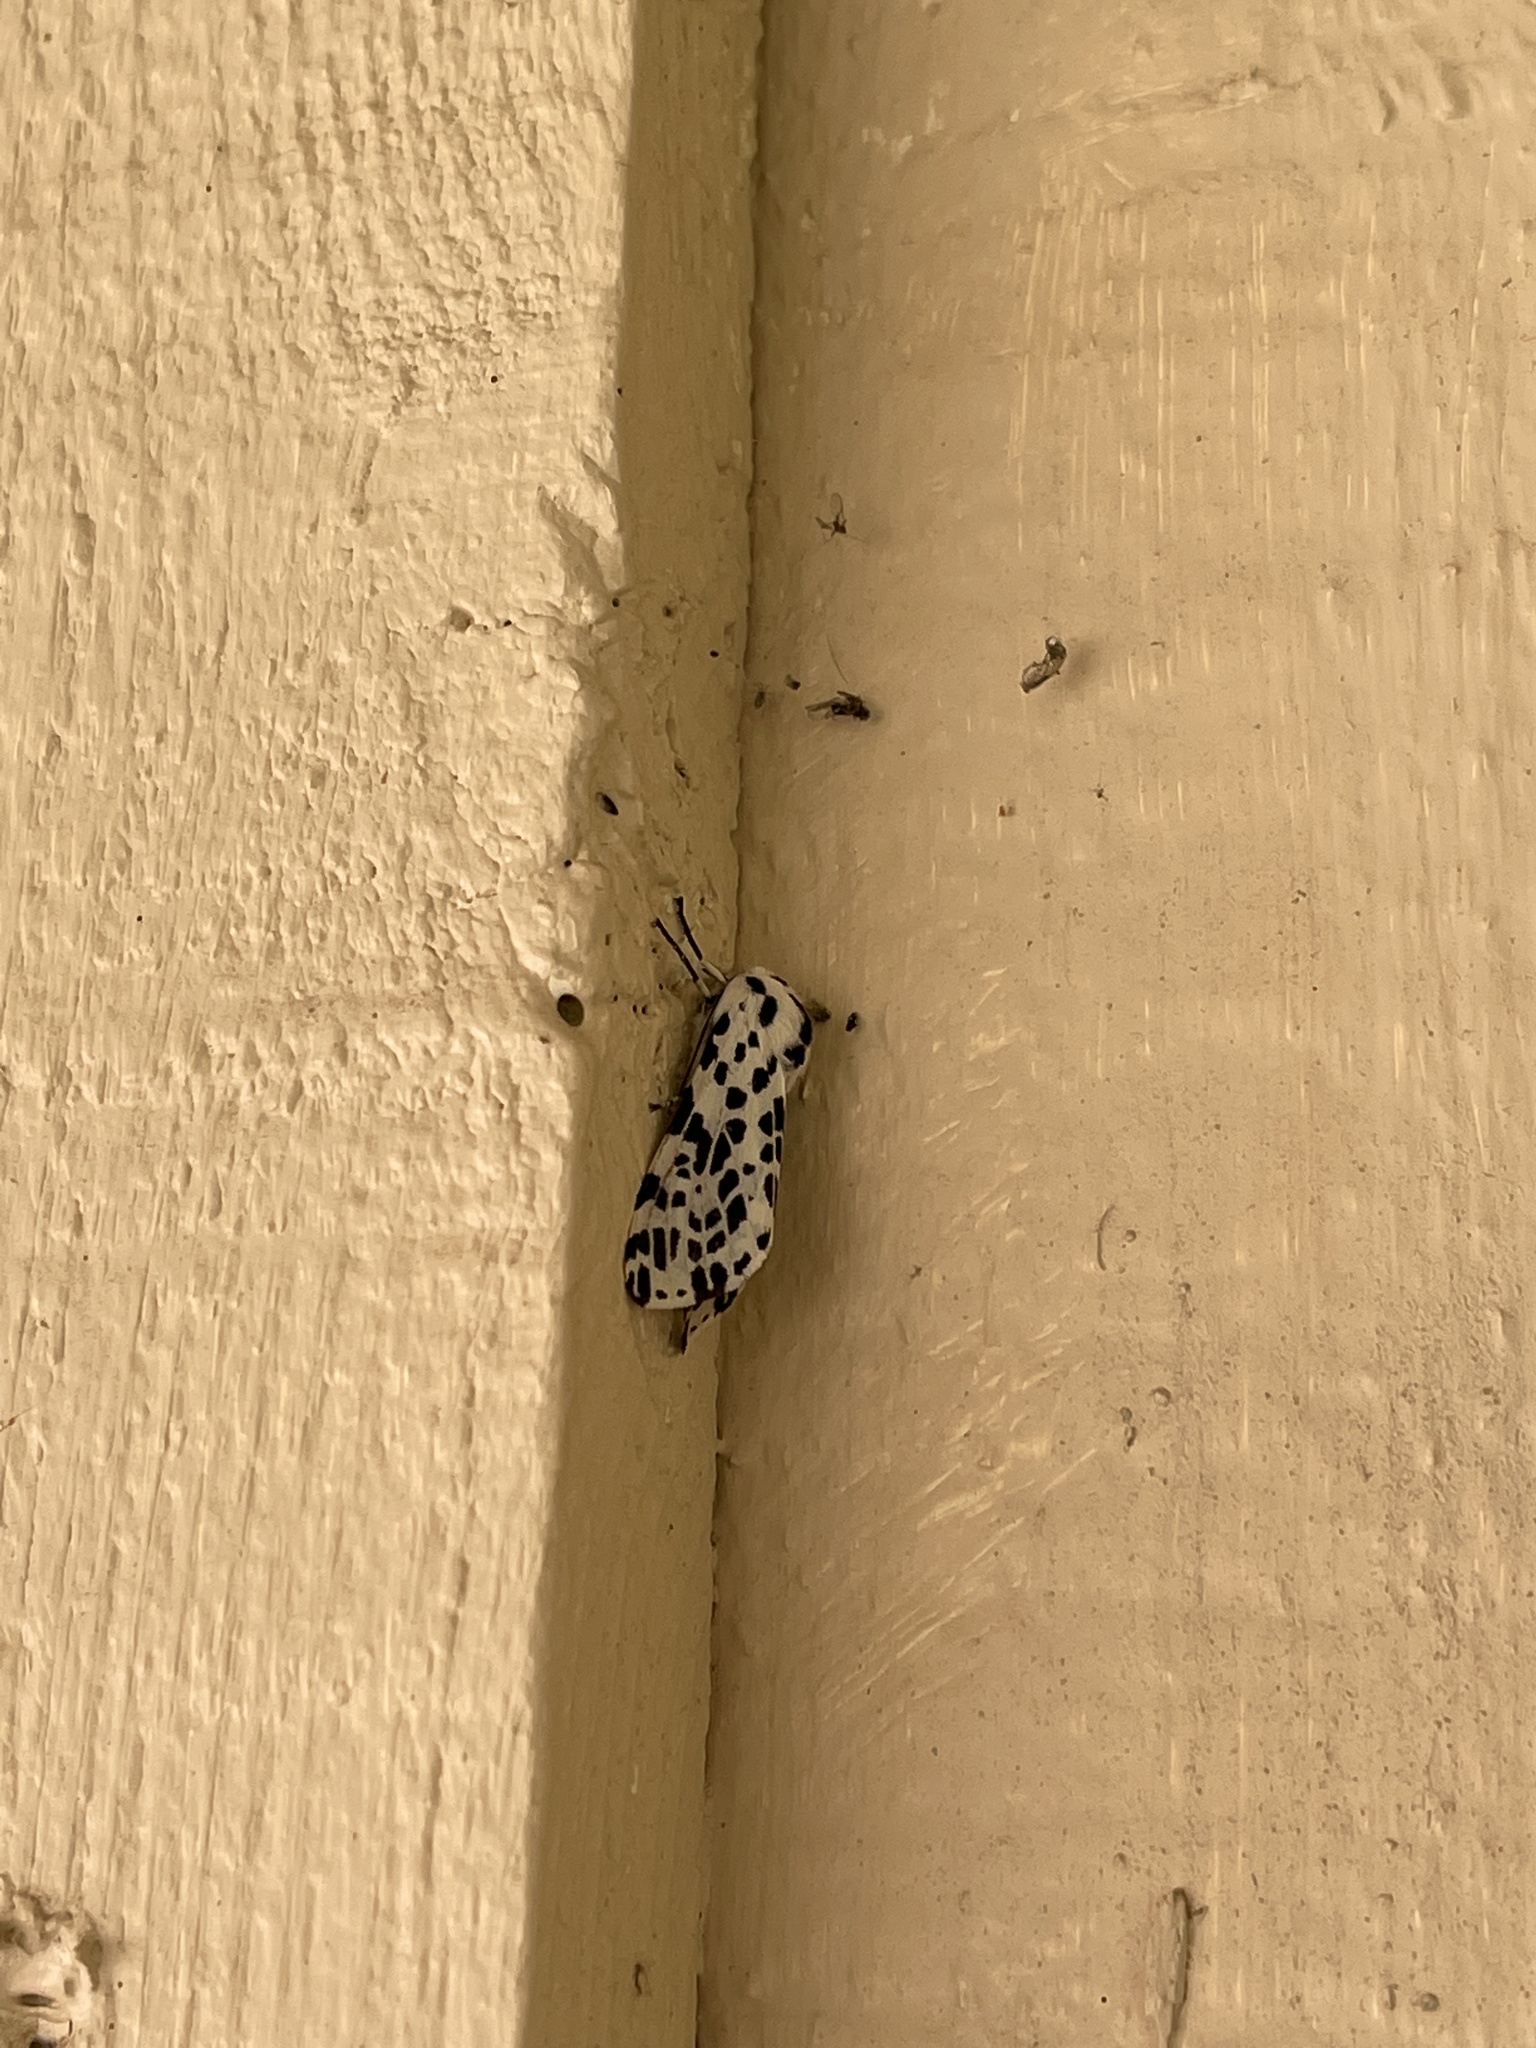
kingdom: Animalia
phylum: Arthropoda
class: Insecta
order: Lepidoptera
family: Erebidae
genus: Hypercompe
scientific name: Hypercompe permaculata
